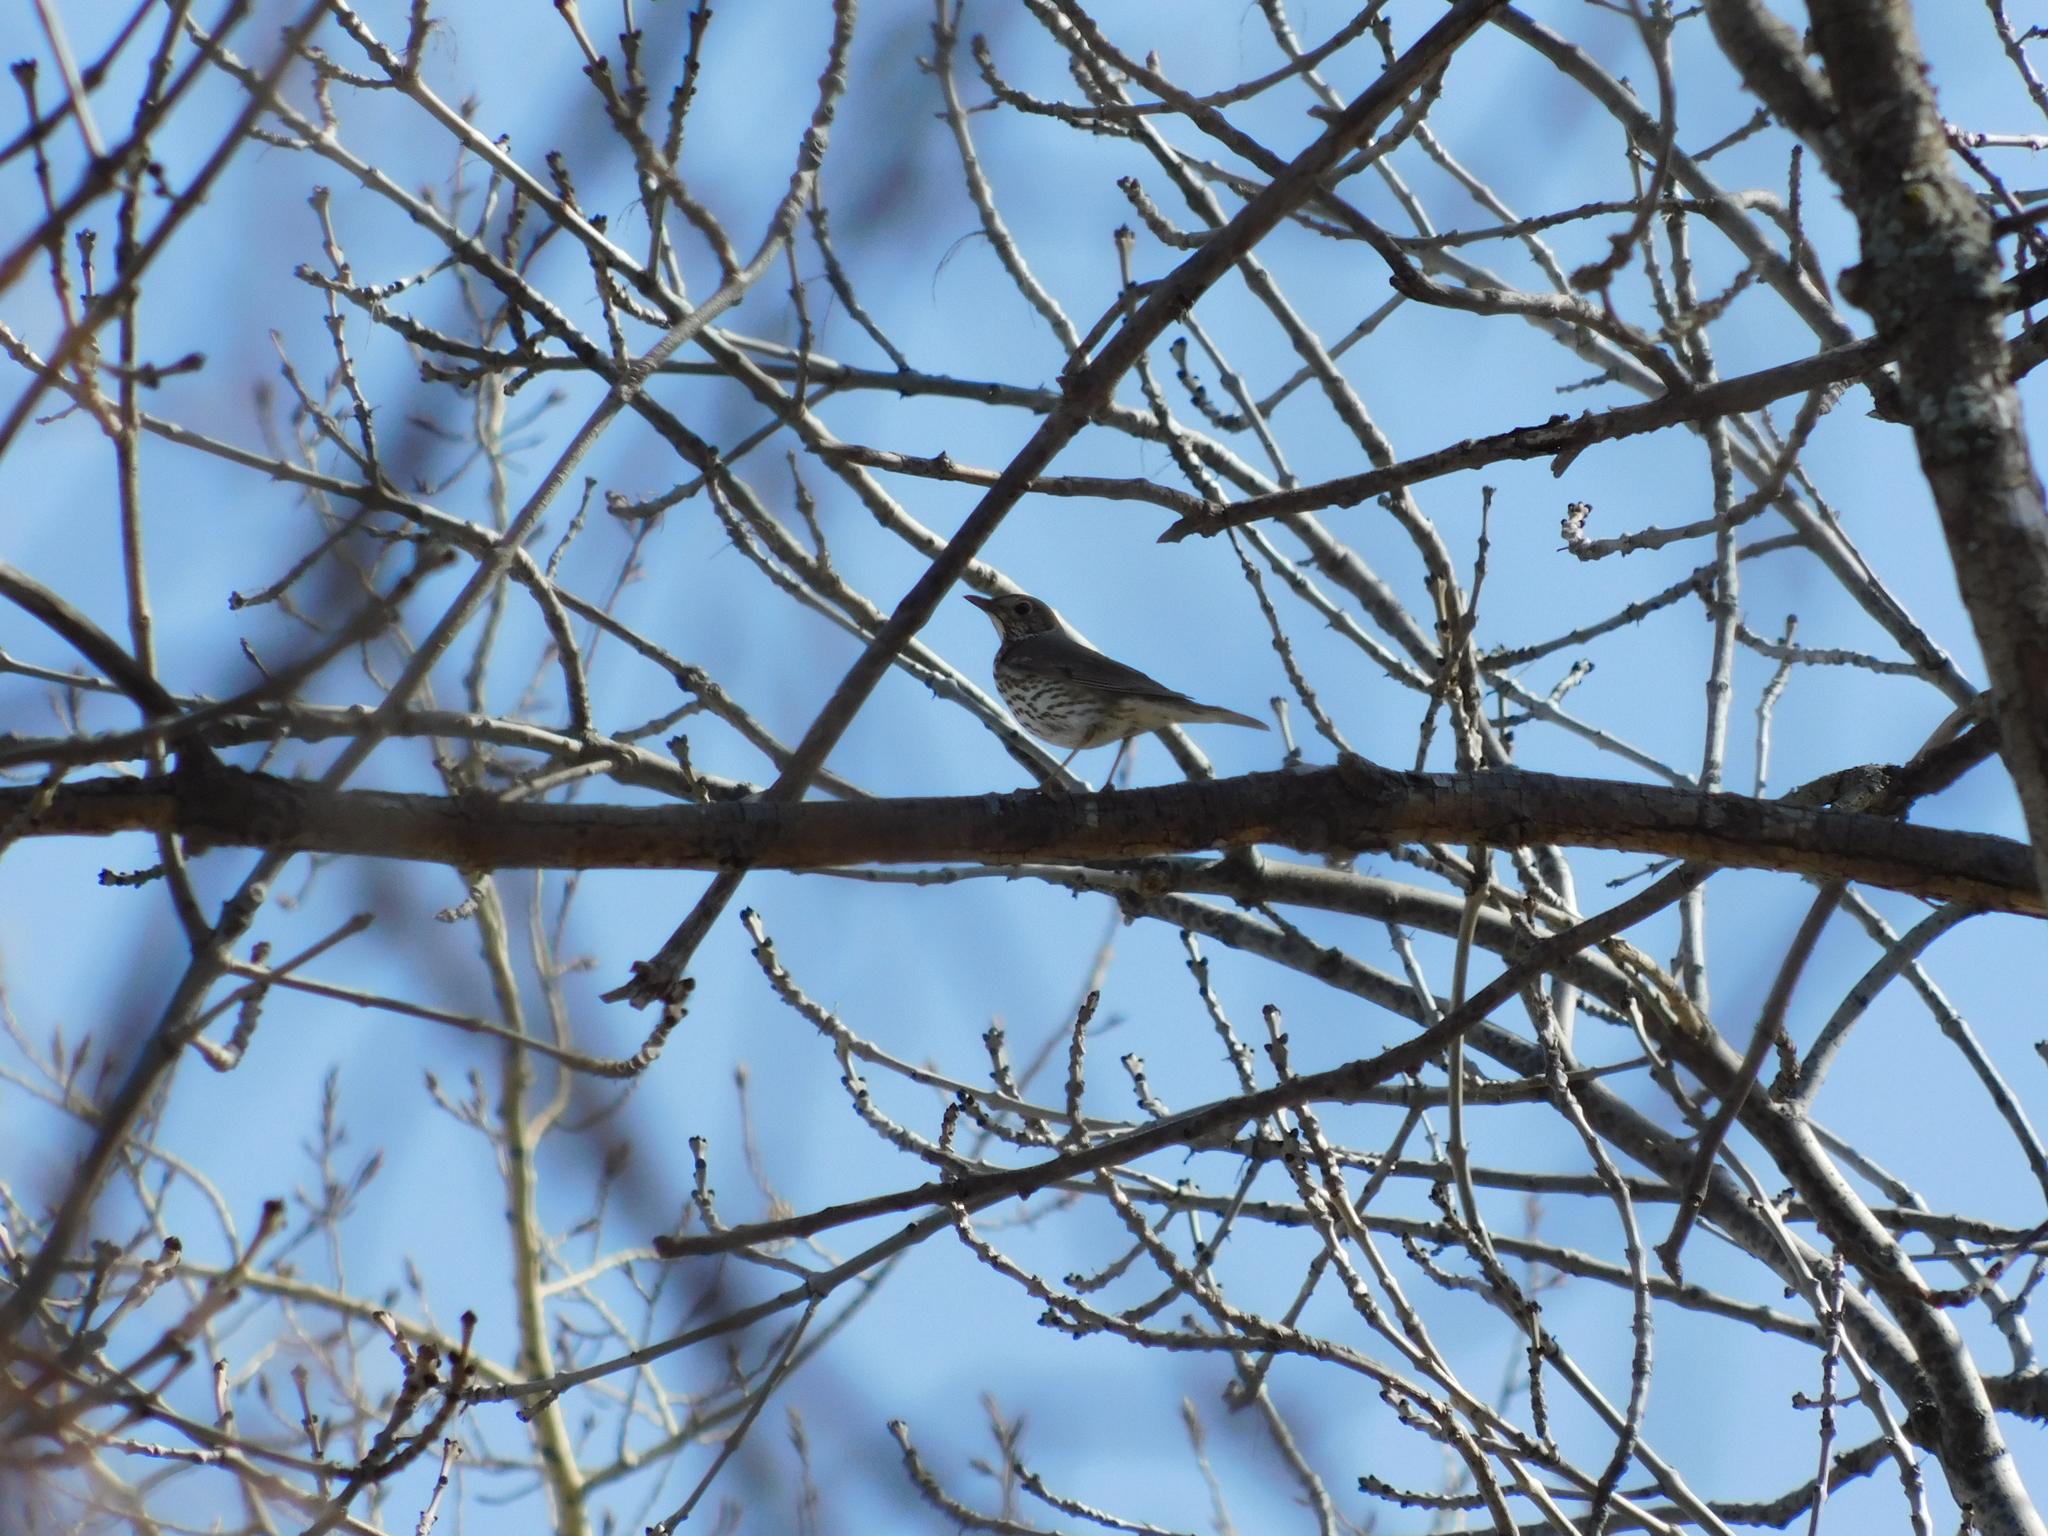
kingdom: Animalia
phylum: Chordata
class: Aves
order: Passeriformes
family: Turdidae
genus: Turdus
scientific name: Turdus philomelos
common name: Song thrush
